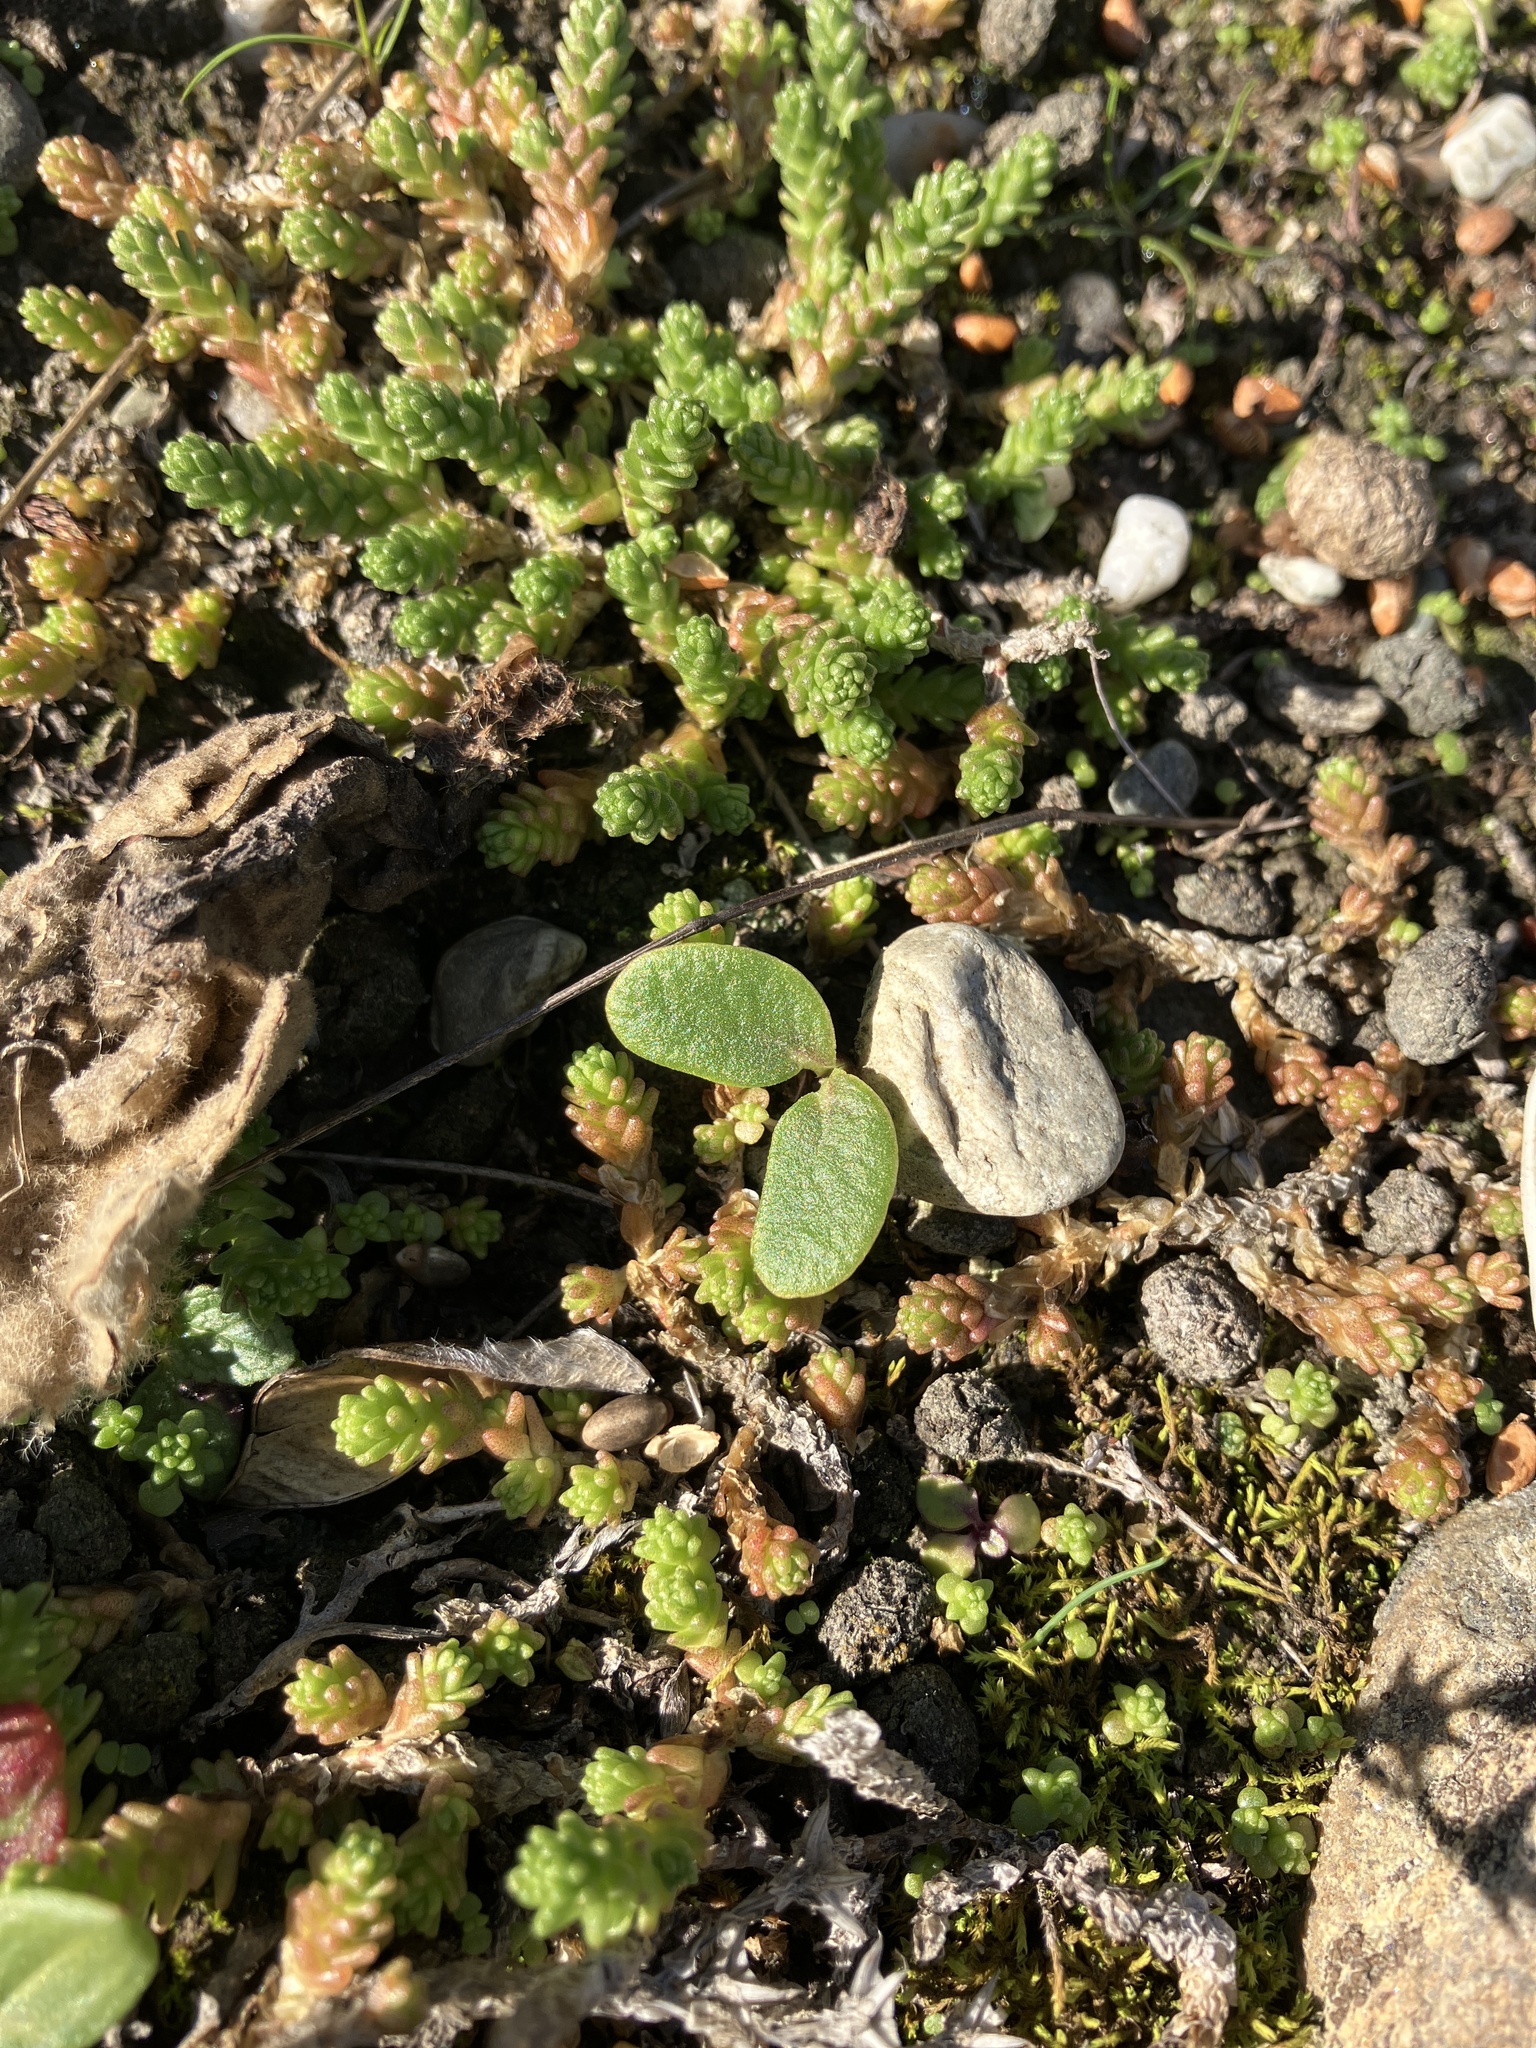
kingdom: Plantae
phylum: Tracheophyta
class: Magnoliopsida
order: Fabales
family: Fabaceae
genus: Lupinus
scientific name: Lupinus arboreus
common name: Yellow bush lupine
